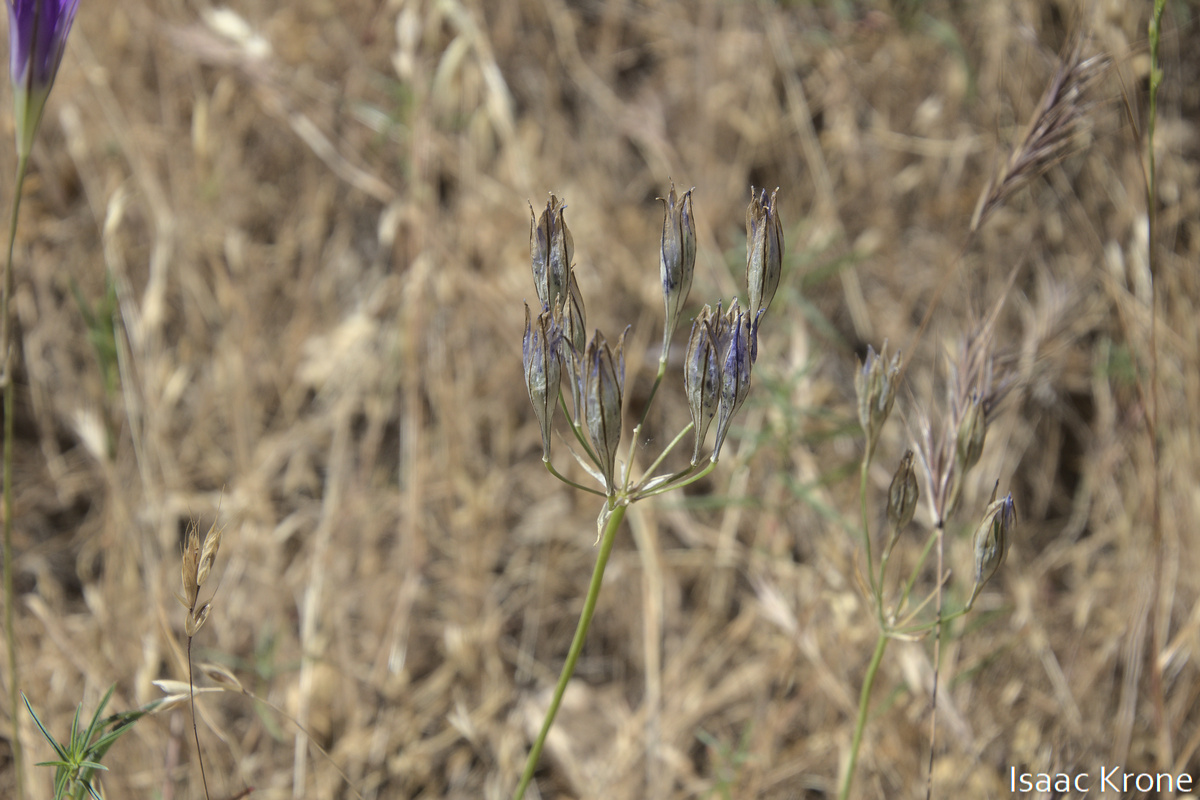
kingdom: Plantae
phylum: Tracheophyta
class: Liliopsida
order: Asparagales
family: Asparagaceae
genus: Triteleia
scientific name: Triteleia laxa
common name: Triplet-lily
